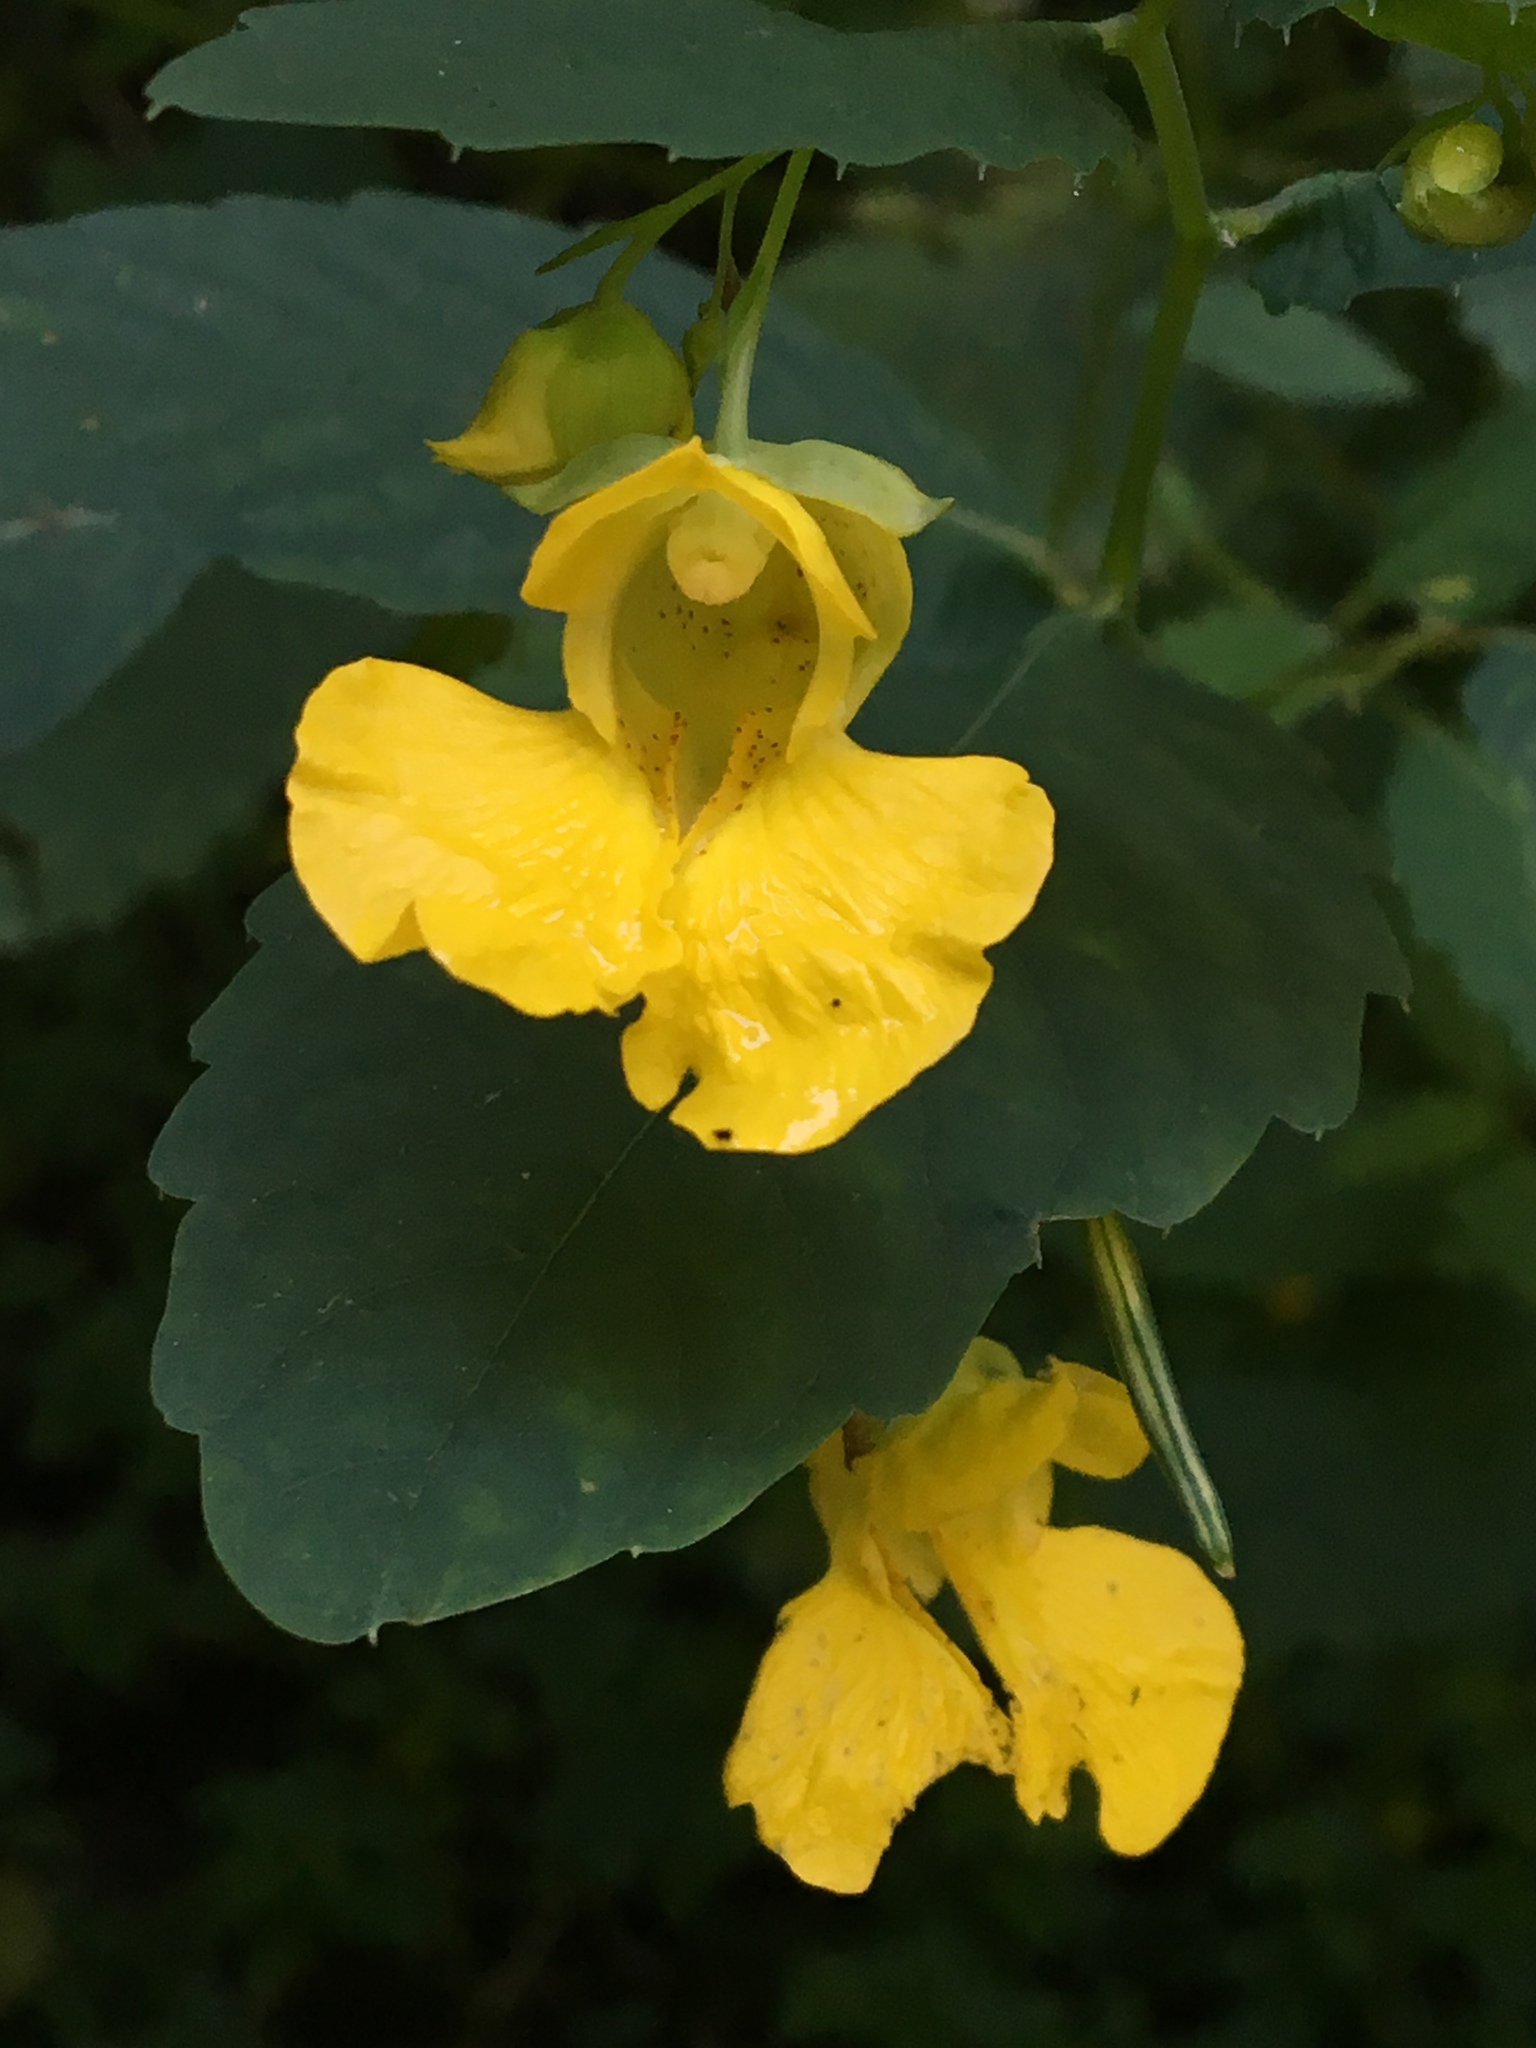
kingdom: Plantae
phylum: Tracheophyta
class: Magnoliopsida
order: Ericales
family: Balsaminaceae
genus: Impatiens
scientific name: Impatiens pallida
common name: Pale snapweed
